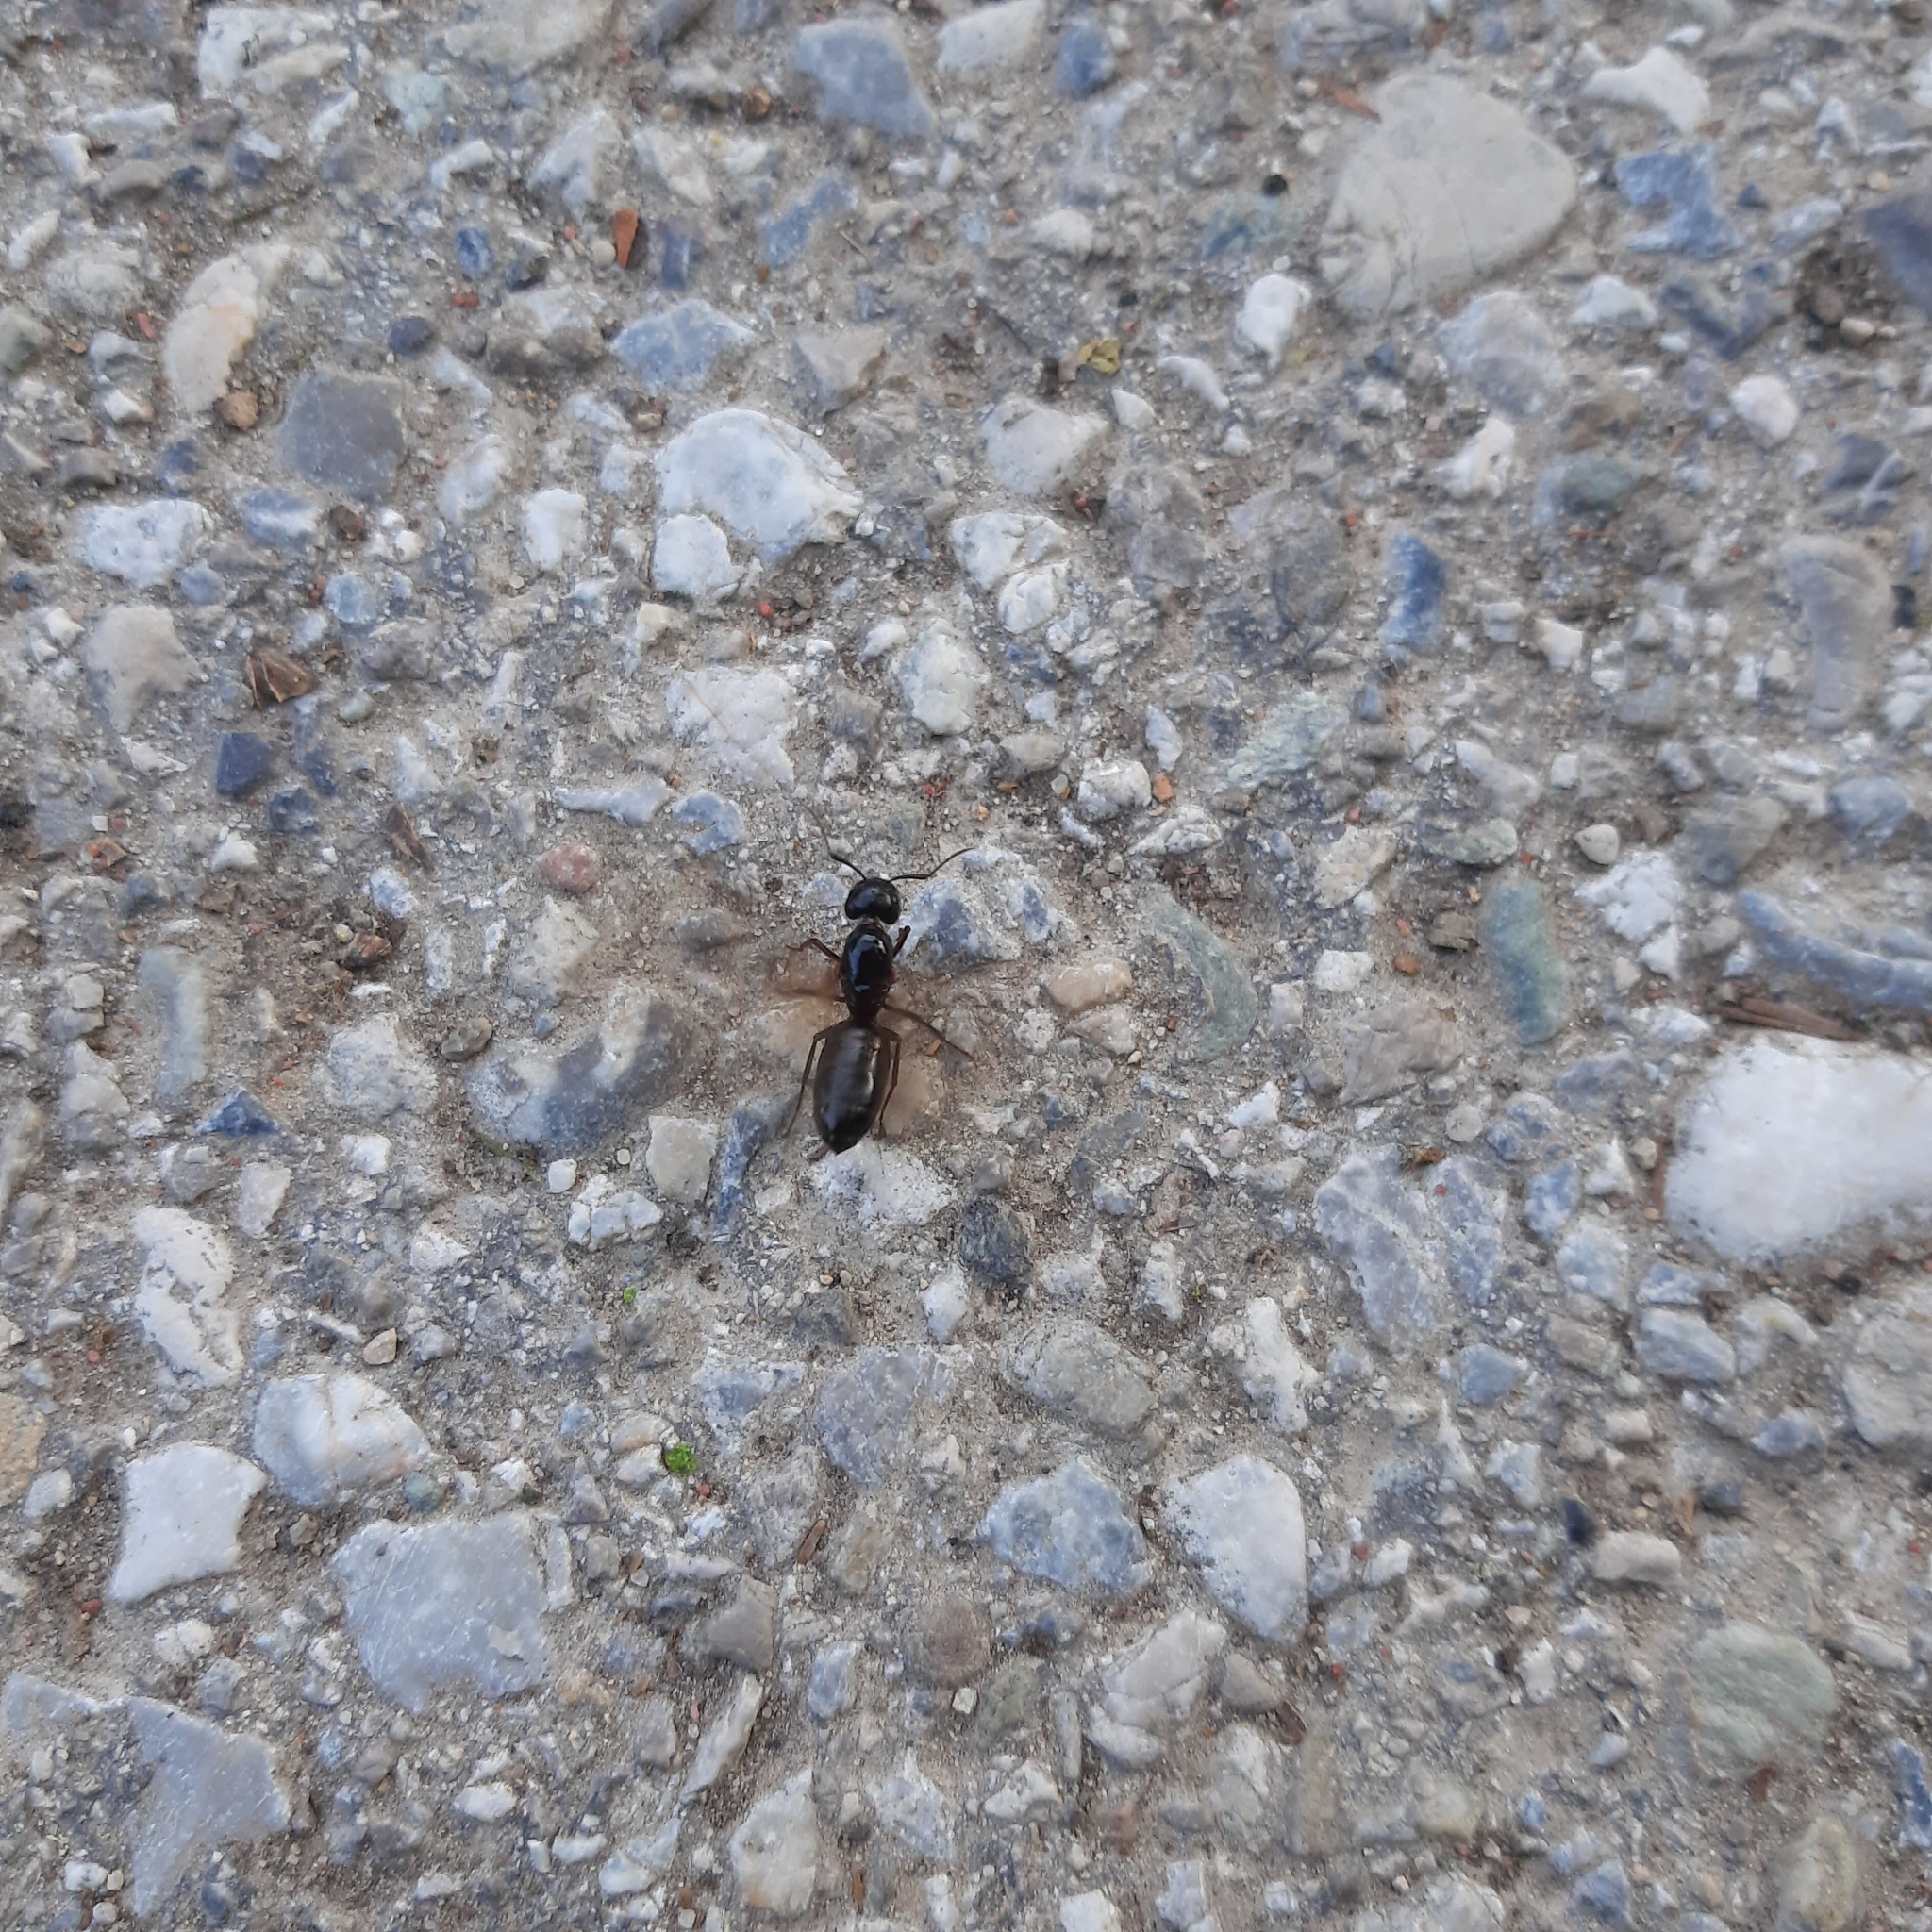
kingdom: Animalia
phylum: Arthropoda
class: Insecta
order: Hymenoptera
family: Formicidae
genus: Camponotus
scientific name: Camponotus
